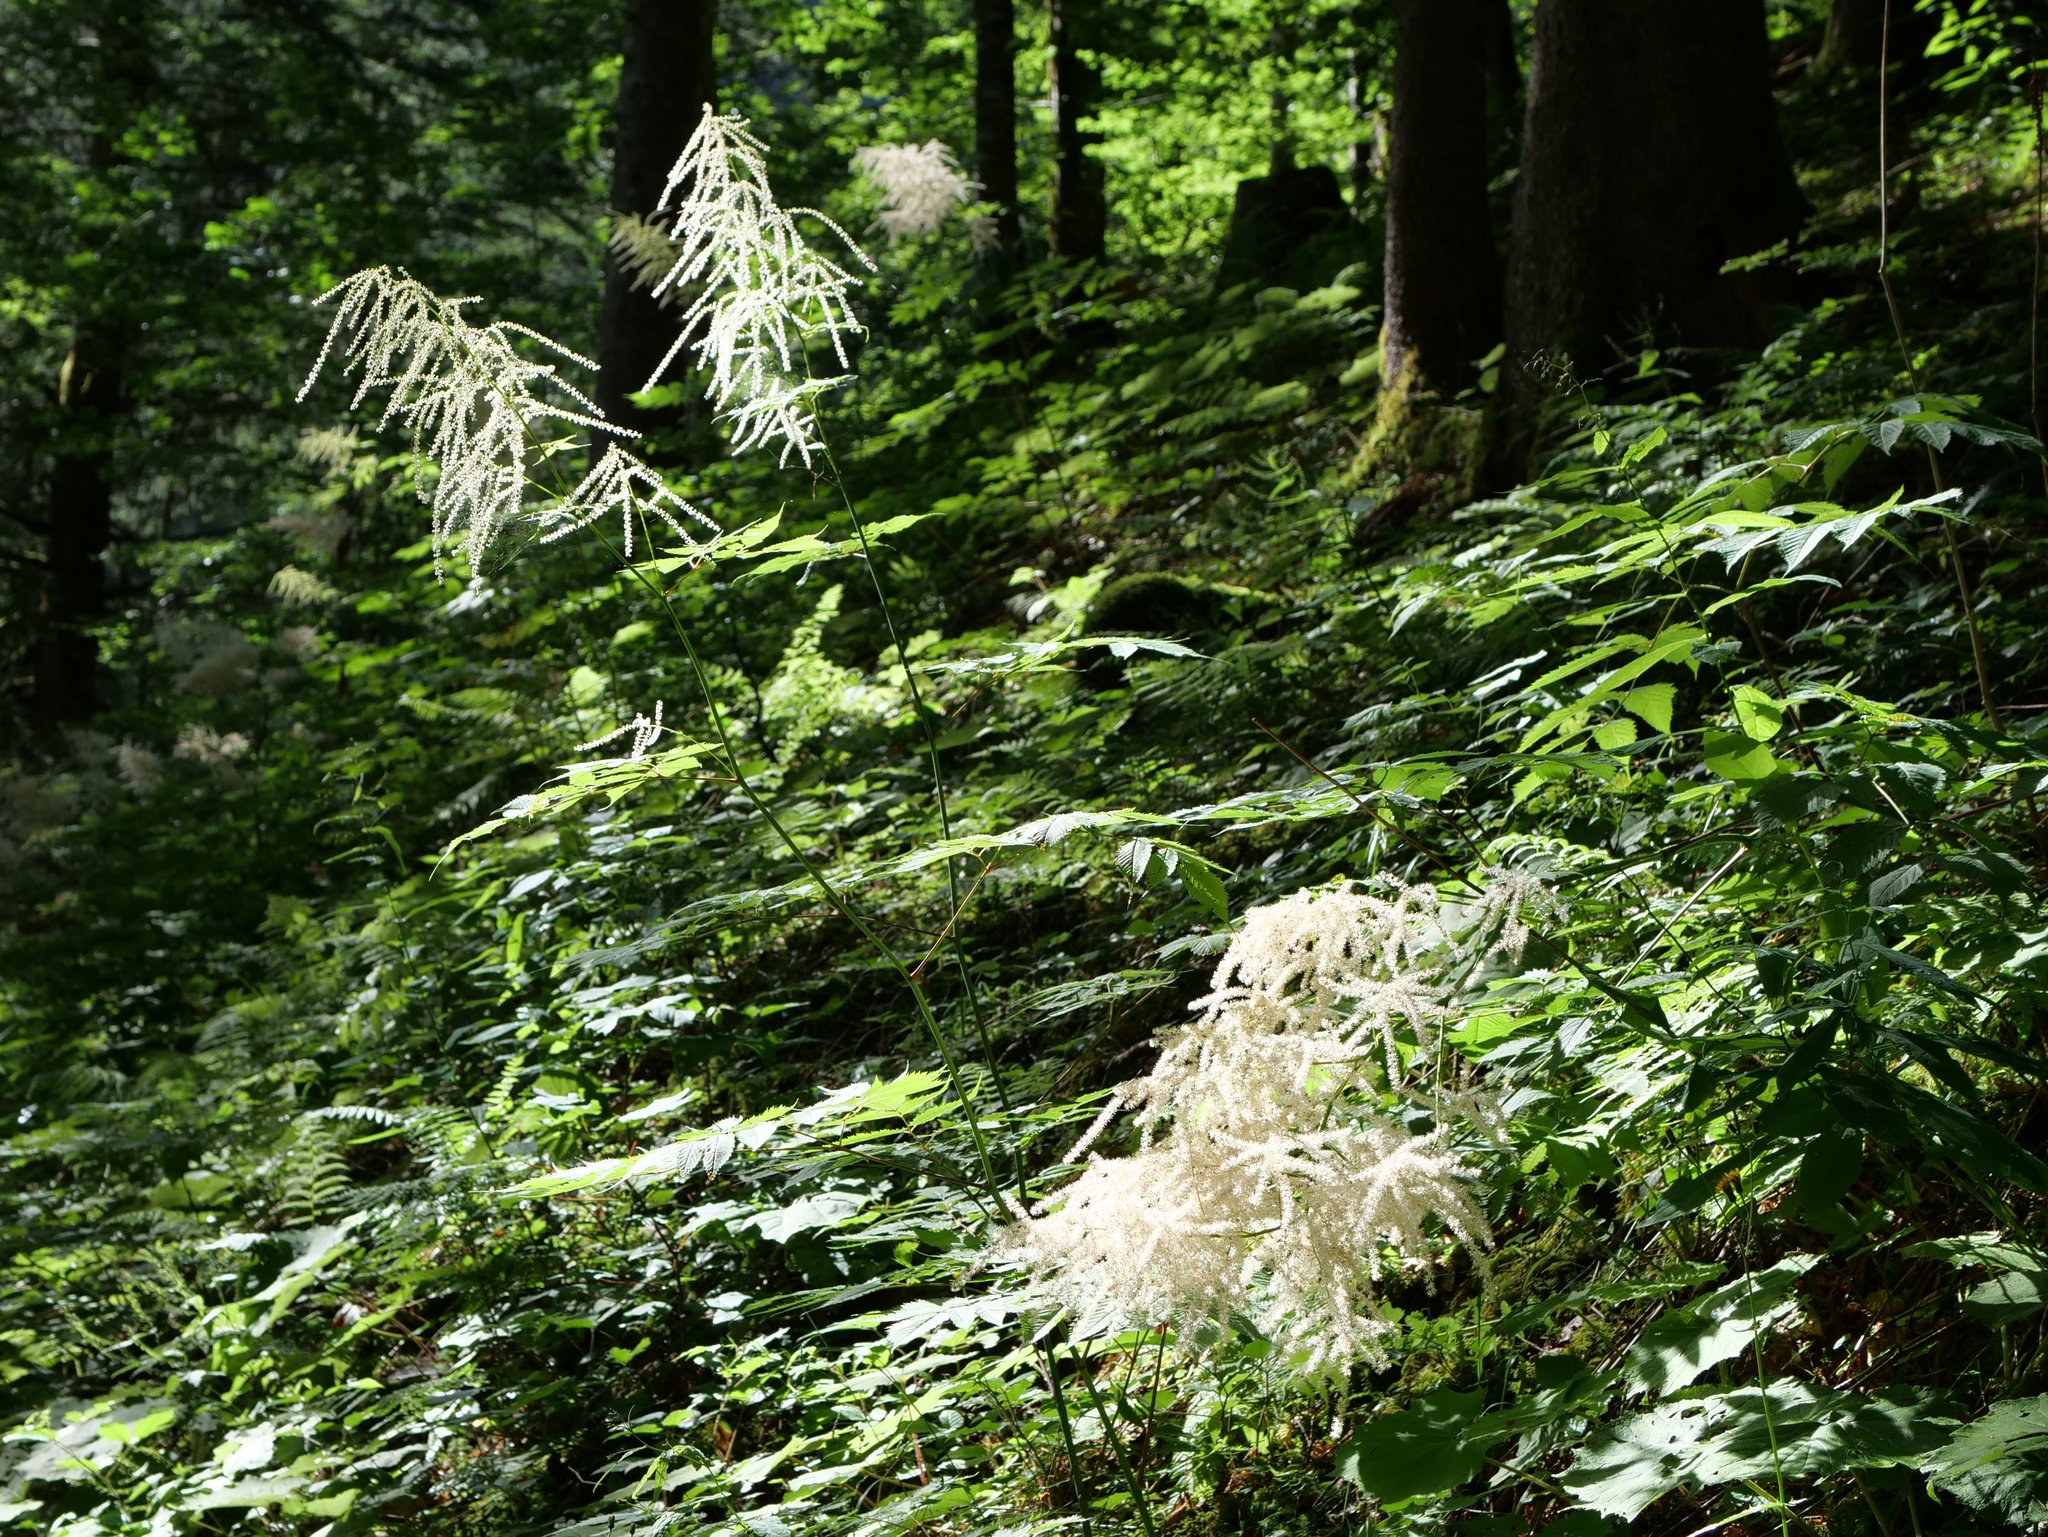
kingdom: Plantae
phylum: Tracheophyta
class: Magnoliopsida
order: Rosales
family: Rosaceae
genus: Aruncus
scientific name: Aruncus dioicus
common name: Buck's-beard
